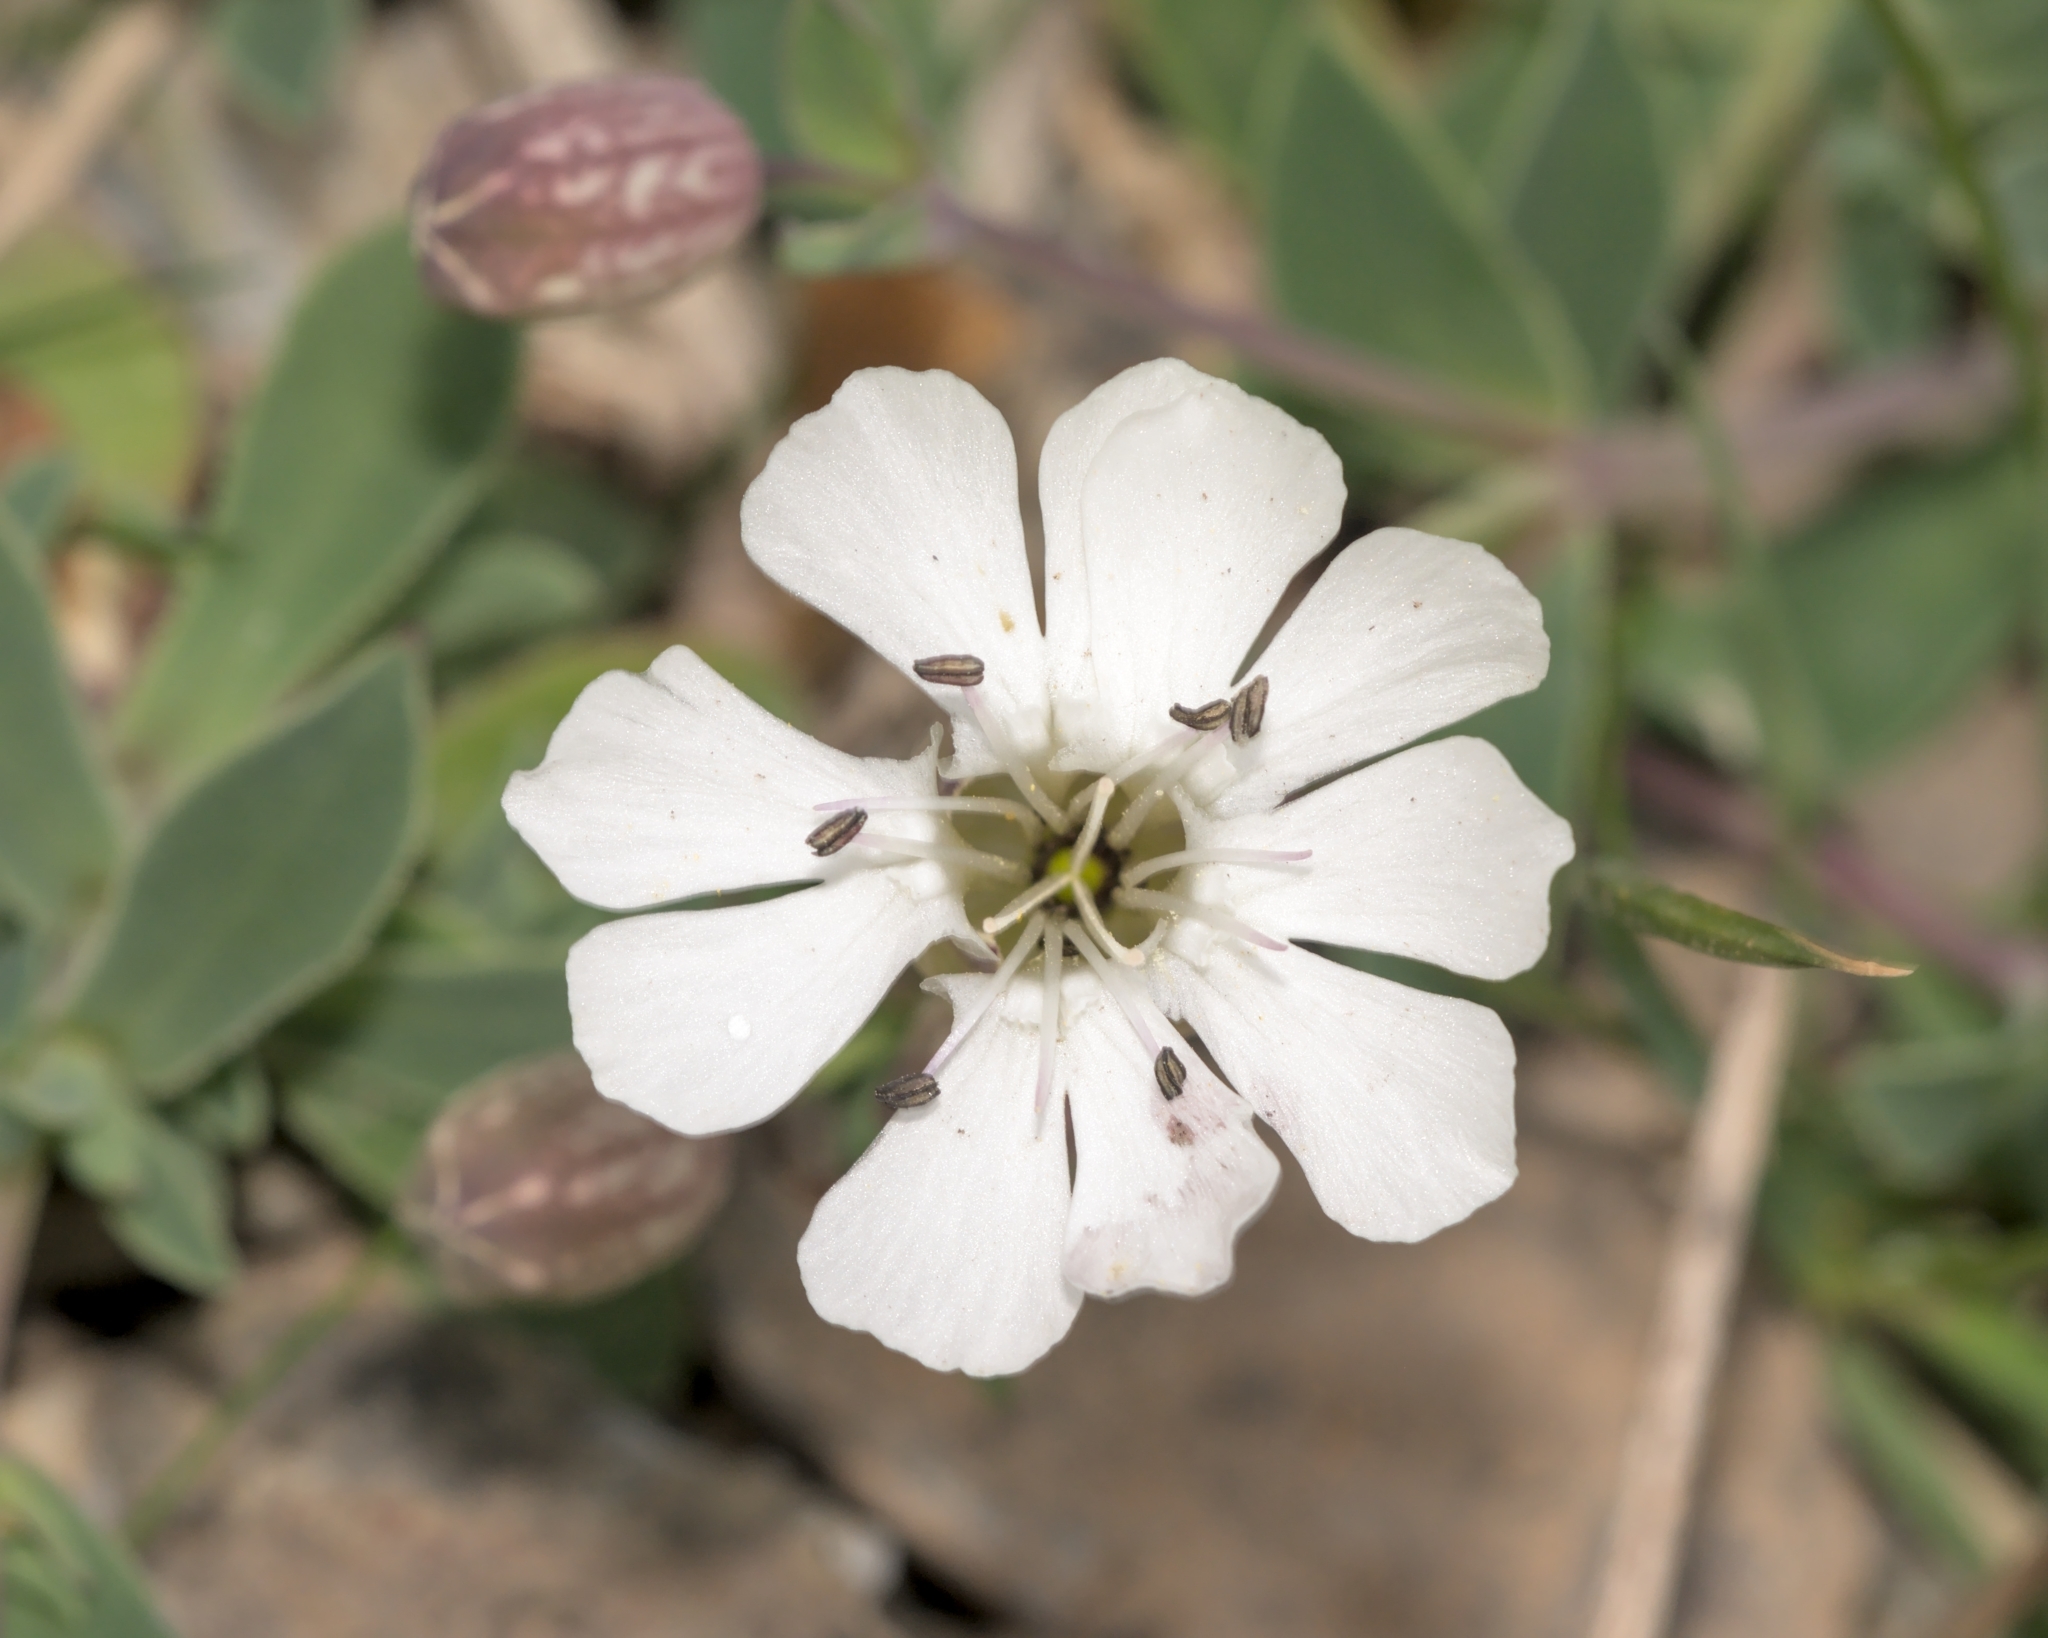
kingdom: Plantae
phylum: Tracheophyta
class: Magnoliopsida
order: Caryophyllales
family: Caryophyllaceae
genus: Silene
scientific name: Silene uniflora
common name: Sea campion
